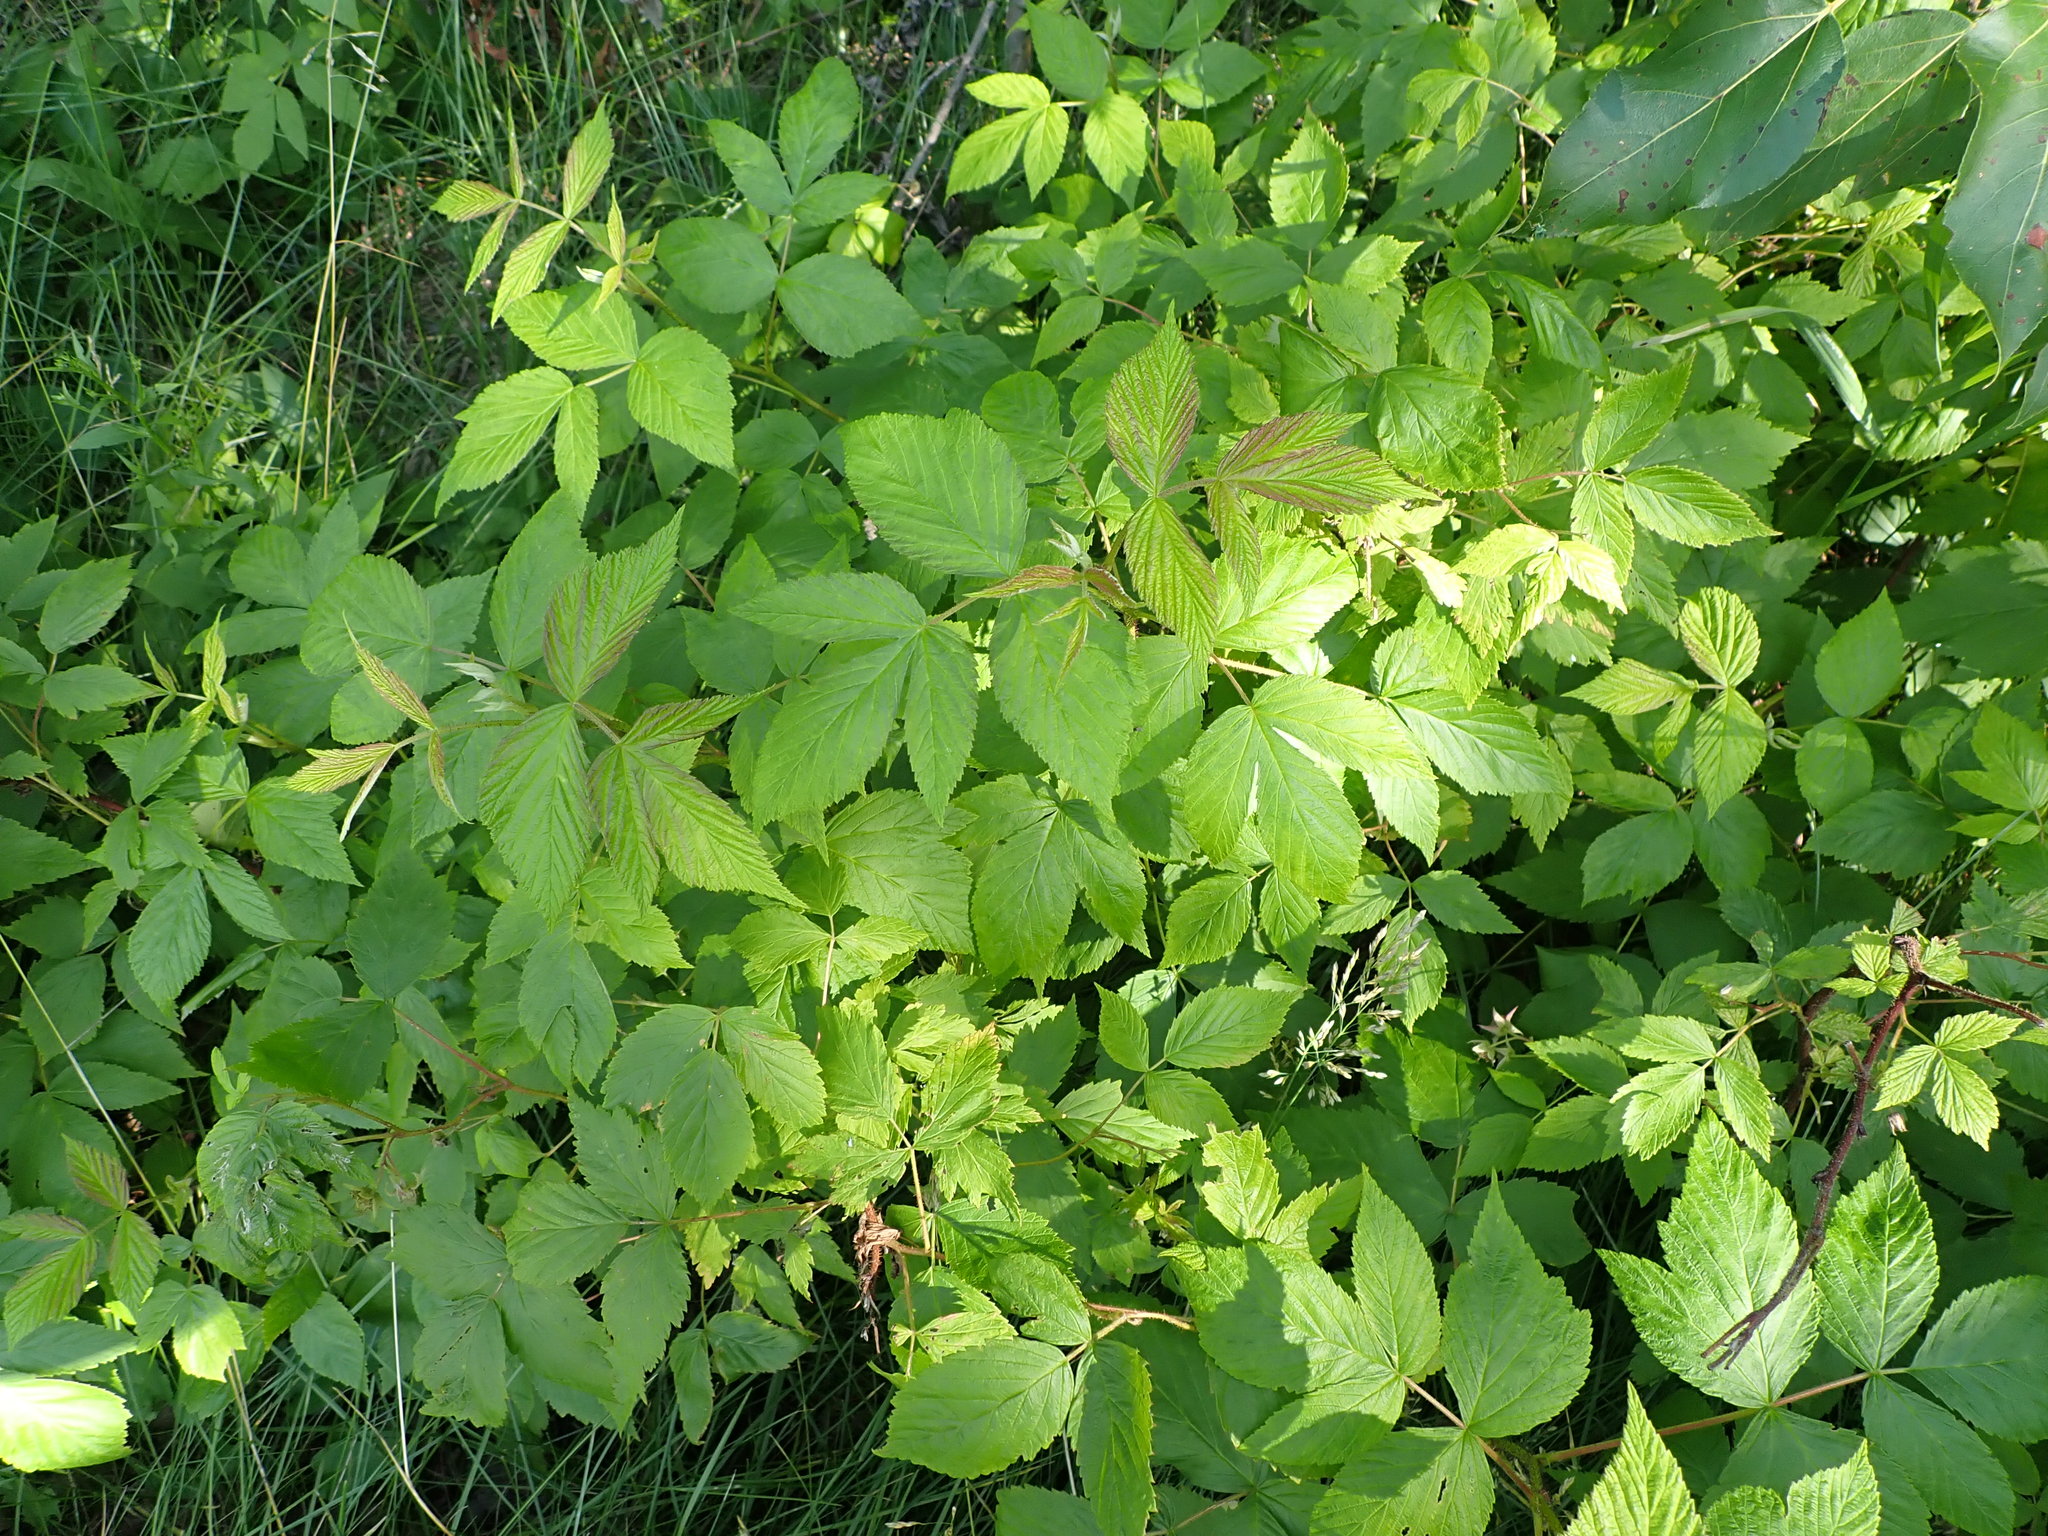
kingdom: Plantae
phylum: Tracheophyta
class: Magnoliopsida
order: Rosales
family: Rosaceae
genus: Rubus
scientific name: Rubus idaeus
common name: Raspberry
